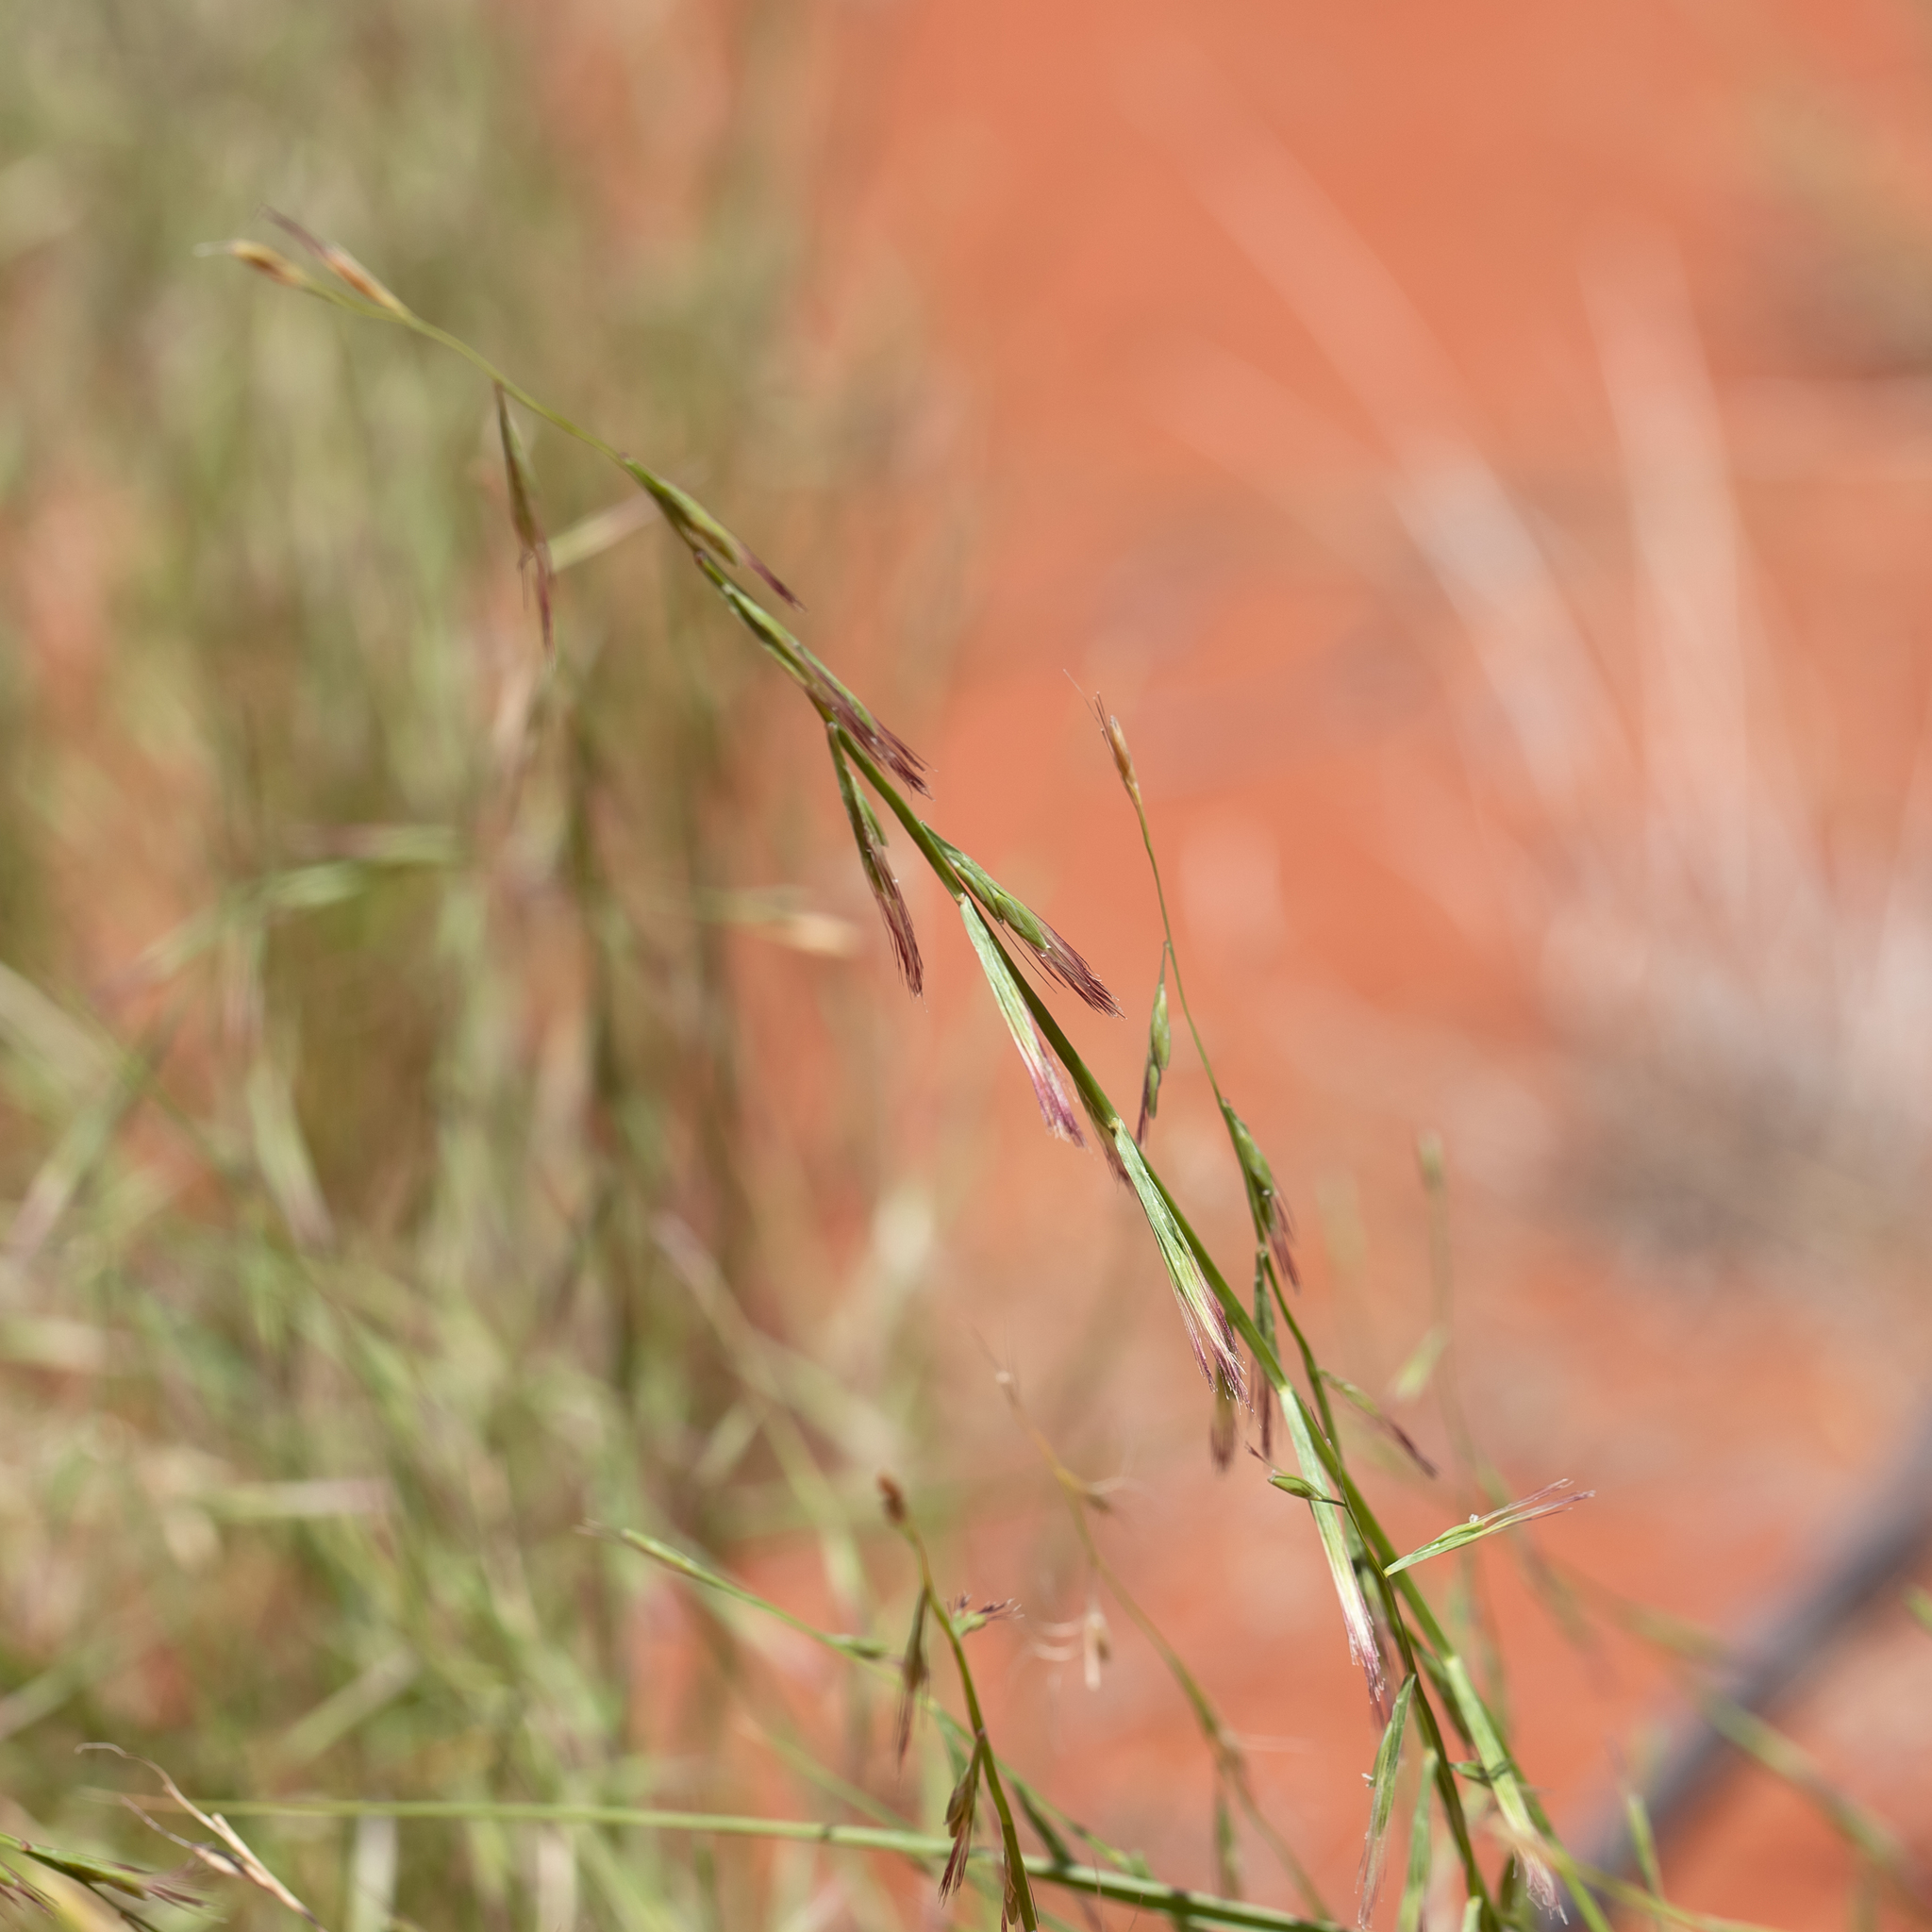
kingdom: Plantae
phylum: Tracheophyta
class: Liliopsida
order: Poales
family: Poaceae
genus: Plagiosetum
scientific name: Plagiosetum refractum
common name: Bristle-brush grass
